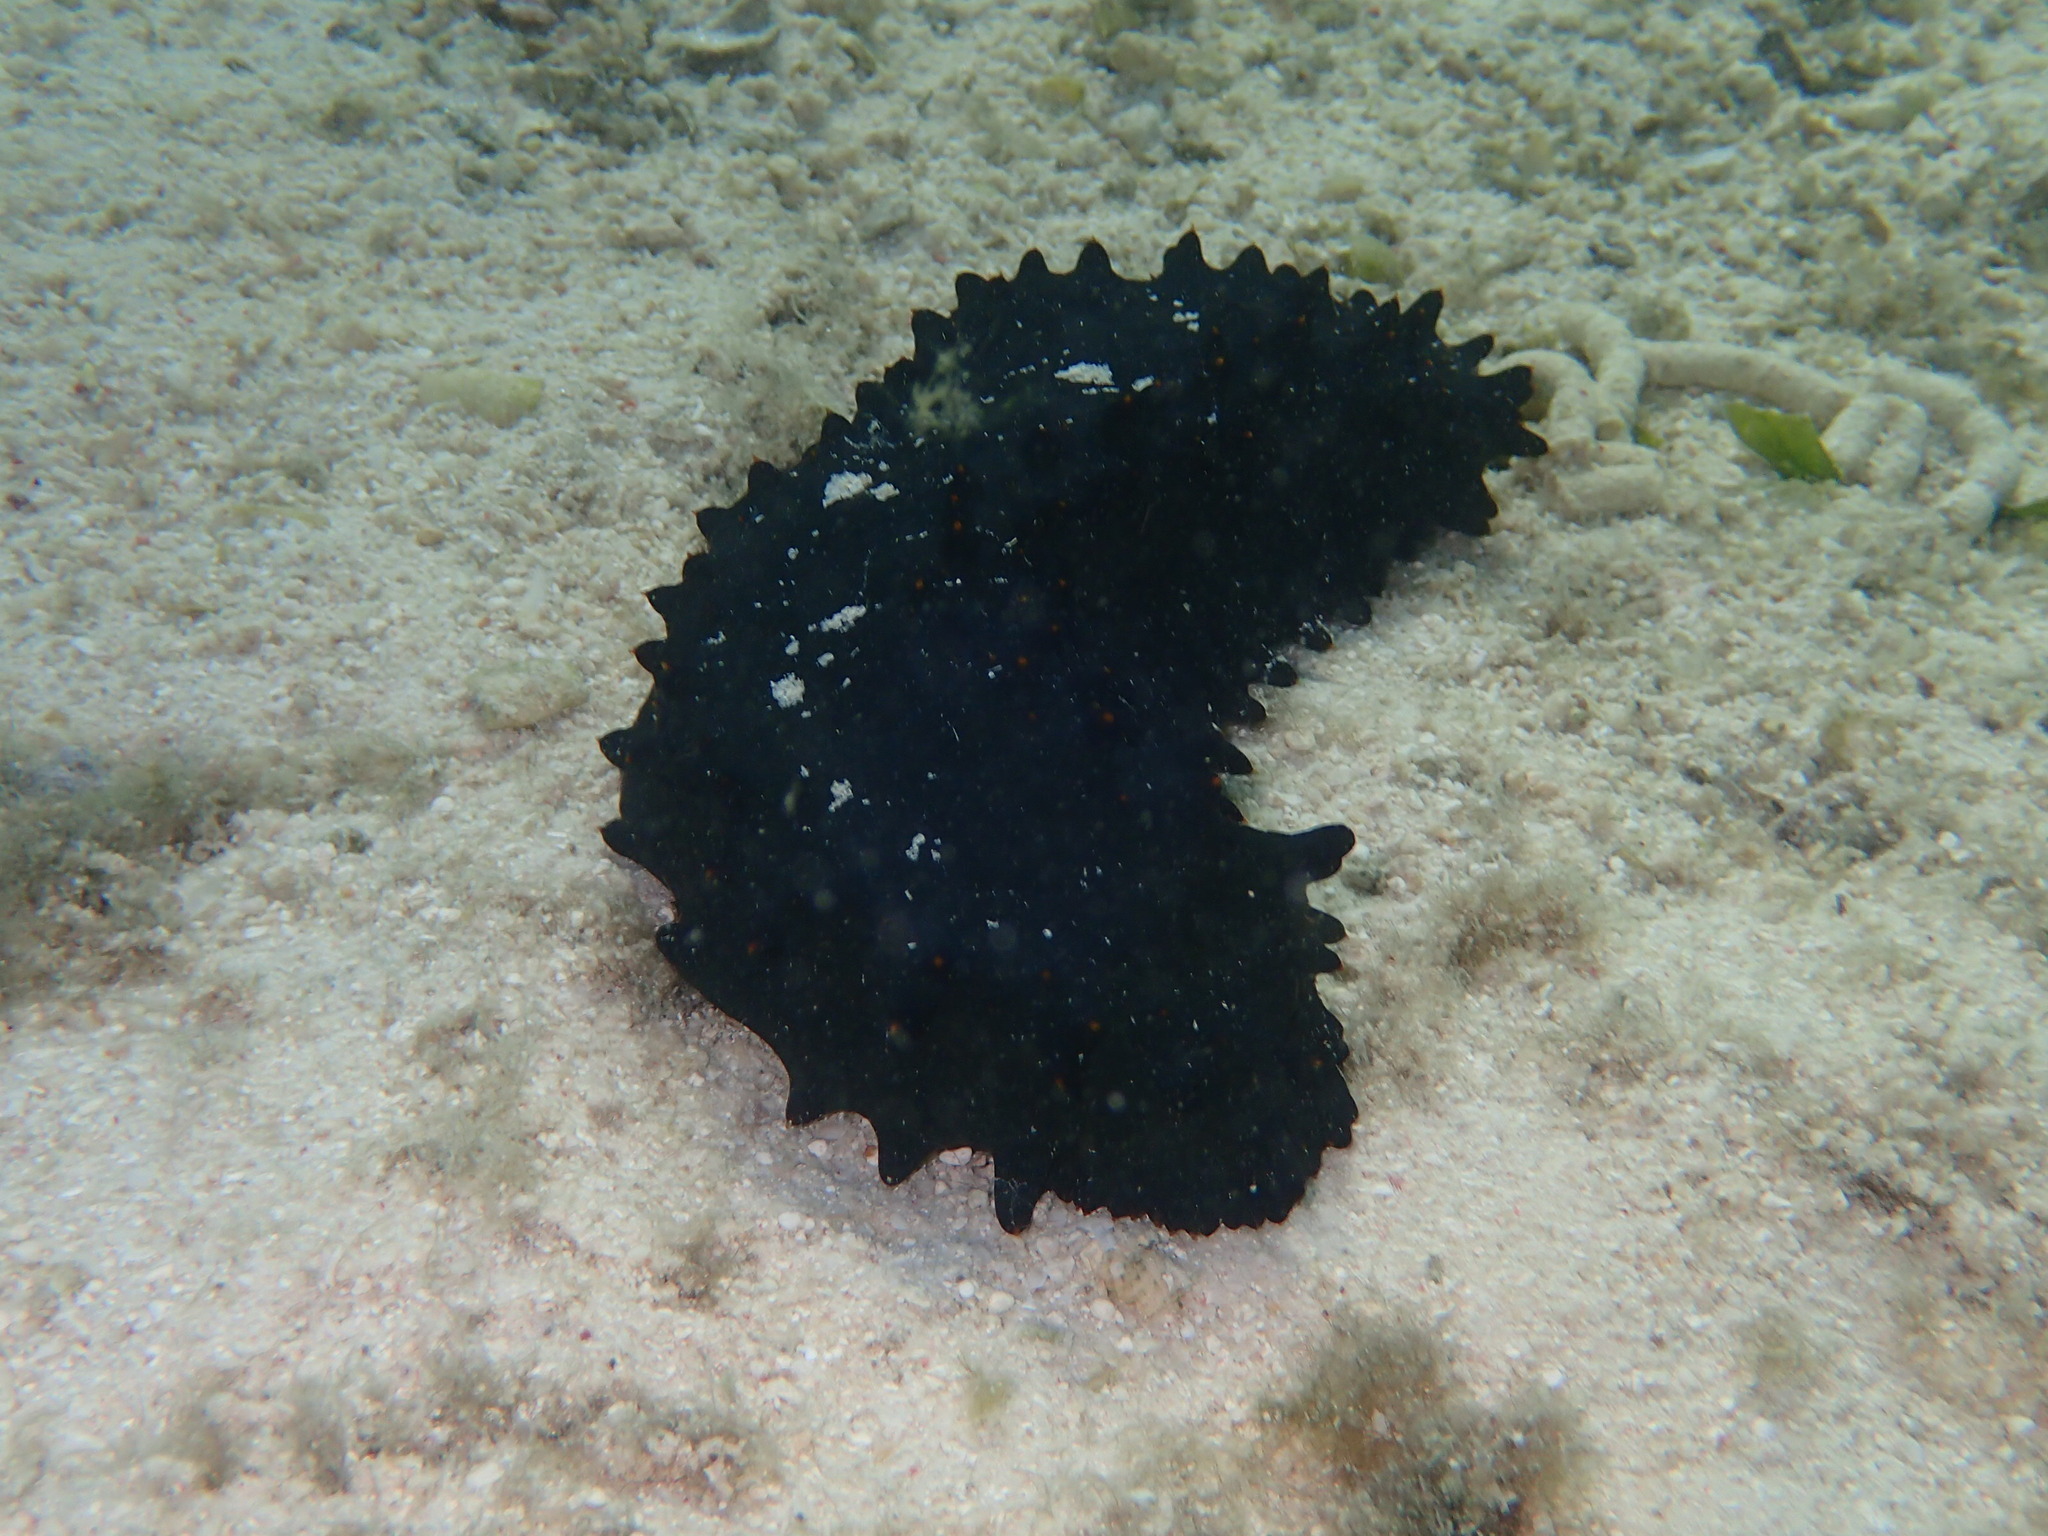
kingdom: Animalia
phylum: Echinodermata
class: Holothuroidea
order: Synallactida
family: Stichopodidae
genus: Stichopus
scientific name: Stichopus chloronotus
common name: Greenfish
